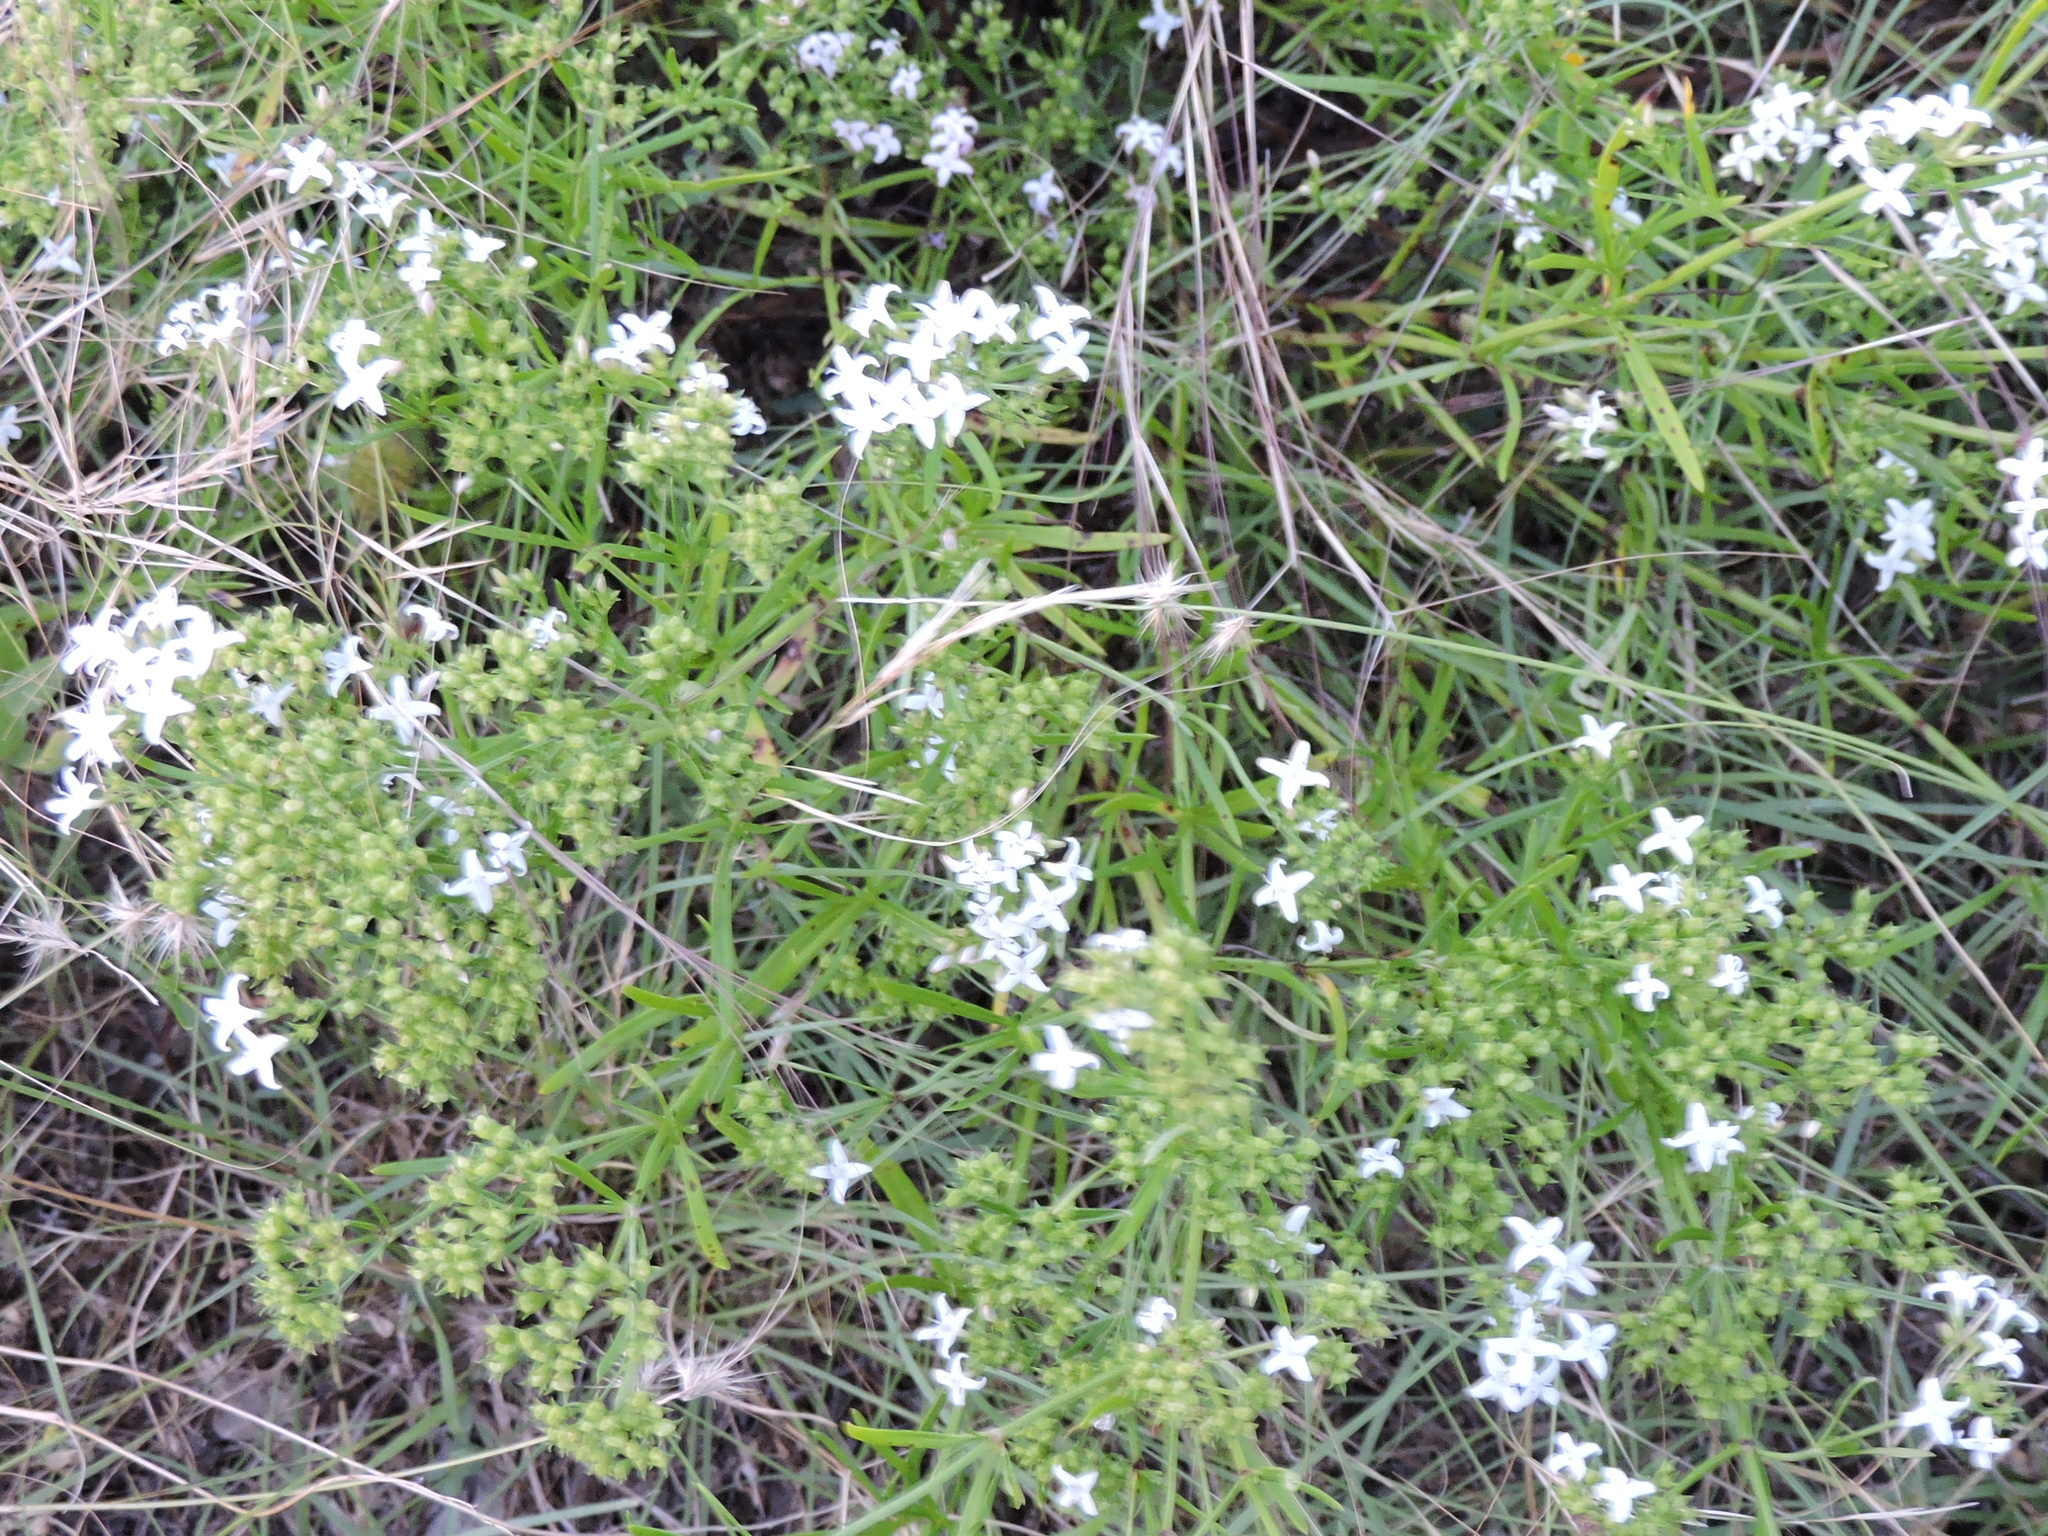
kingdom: Plantae
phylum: Tracheophyta
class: Magnoliopsida
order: Gentianales
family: Rubiaceae
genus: Stenaria
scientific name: Stenaria nigricans
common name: Diamondflowers
